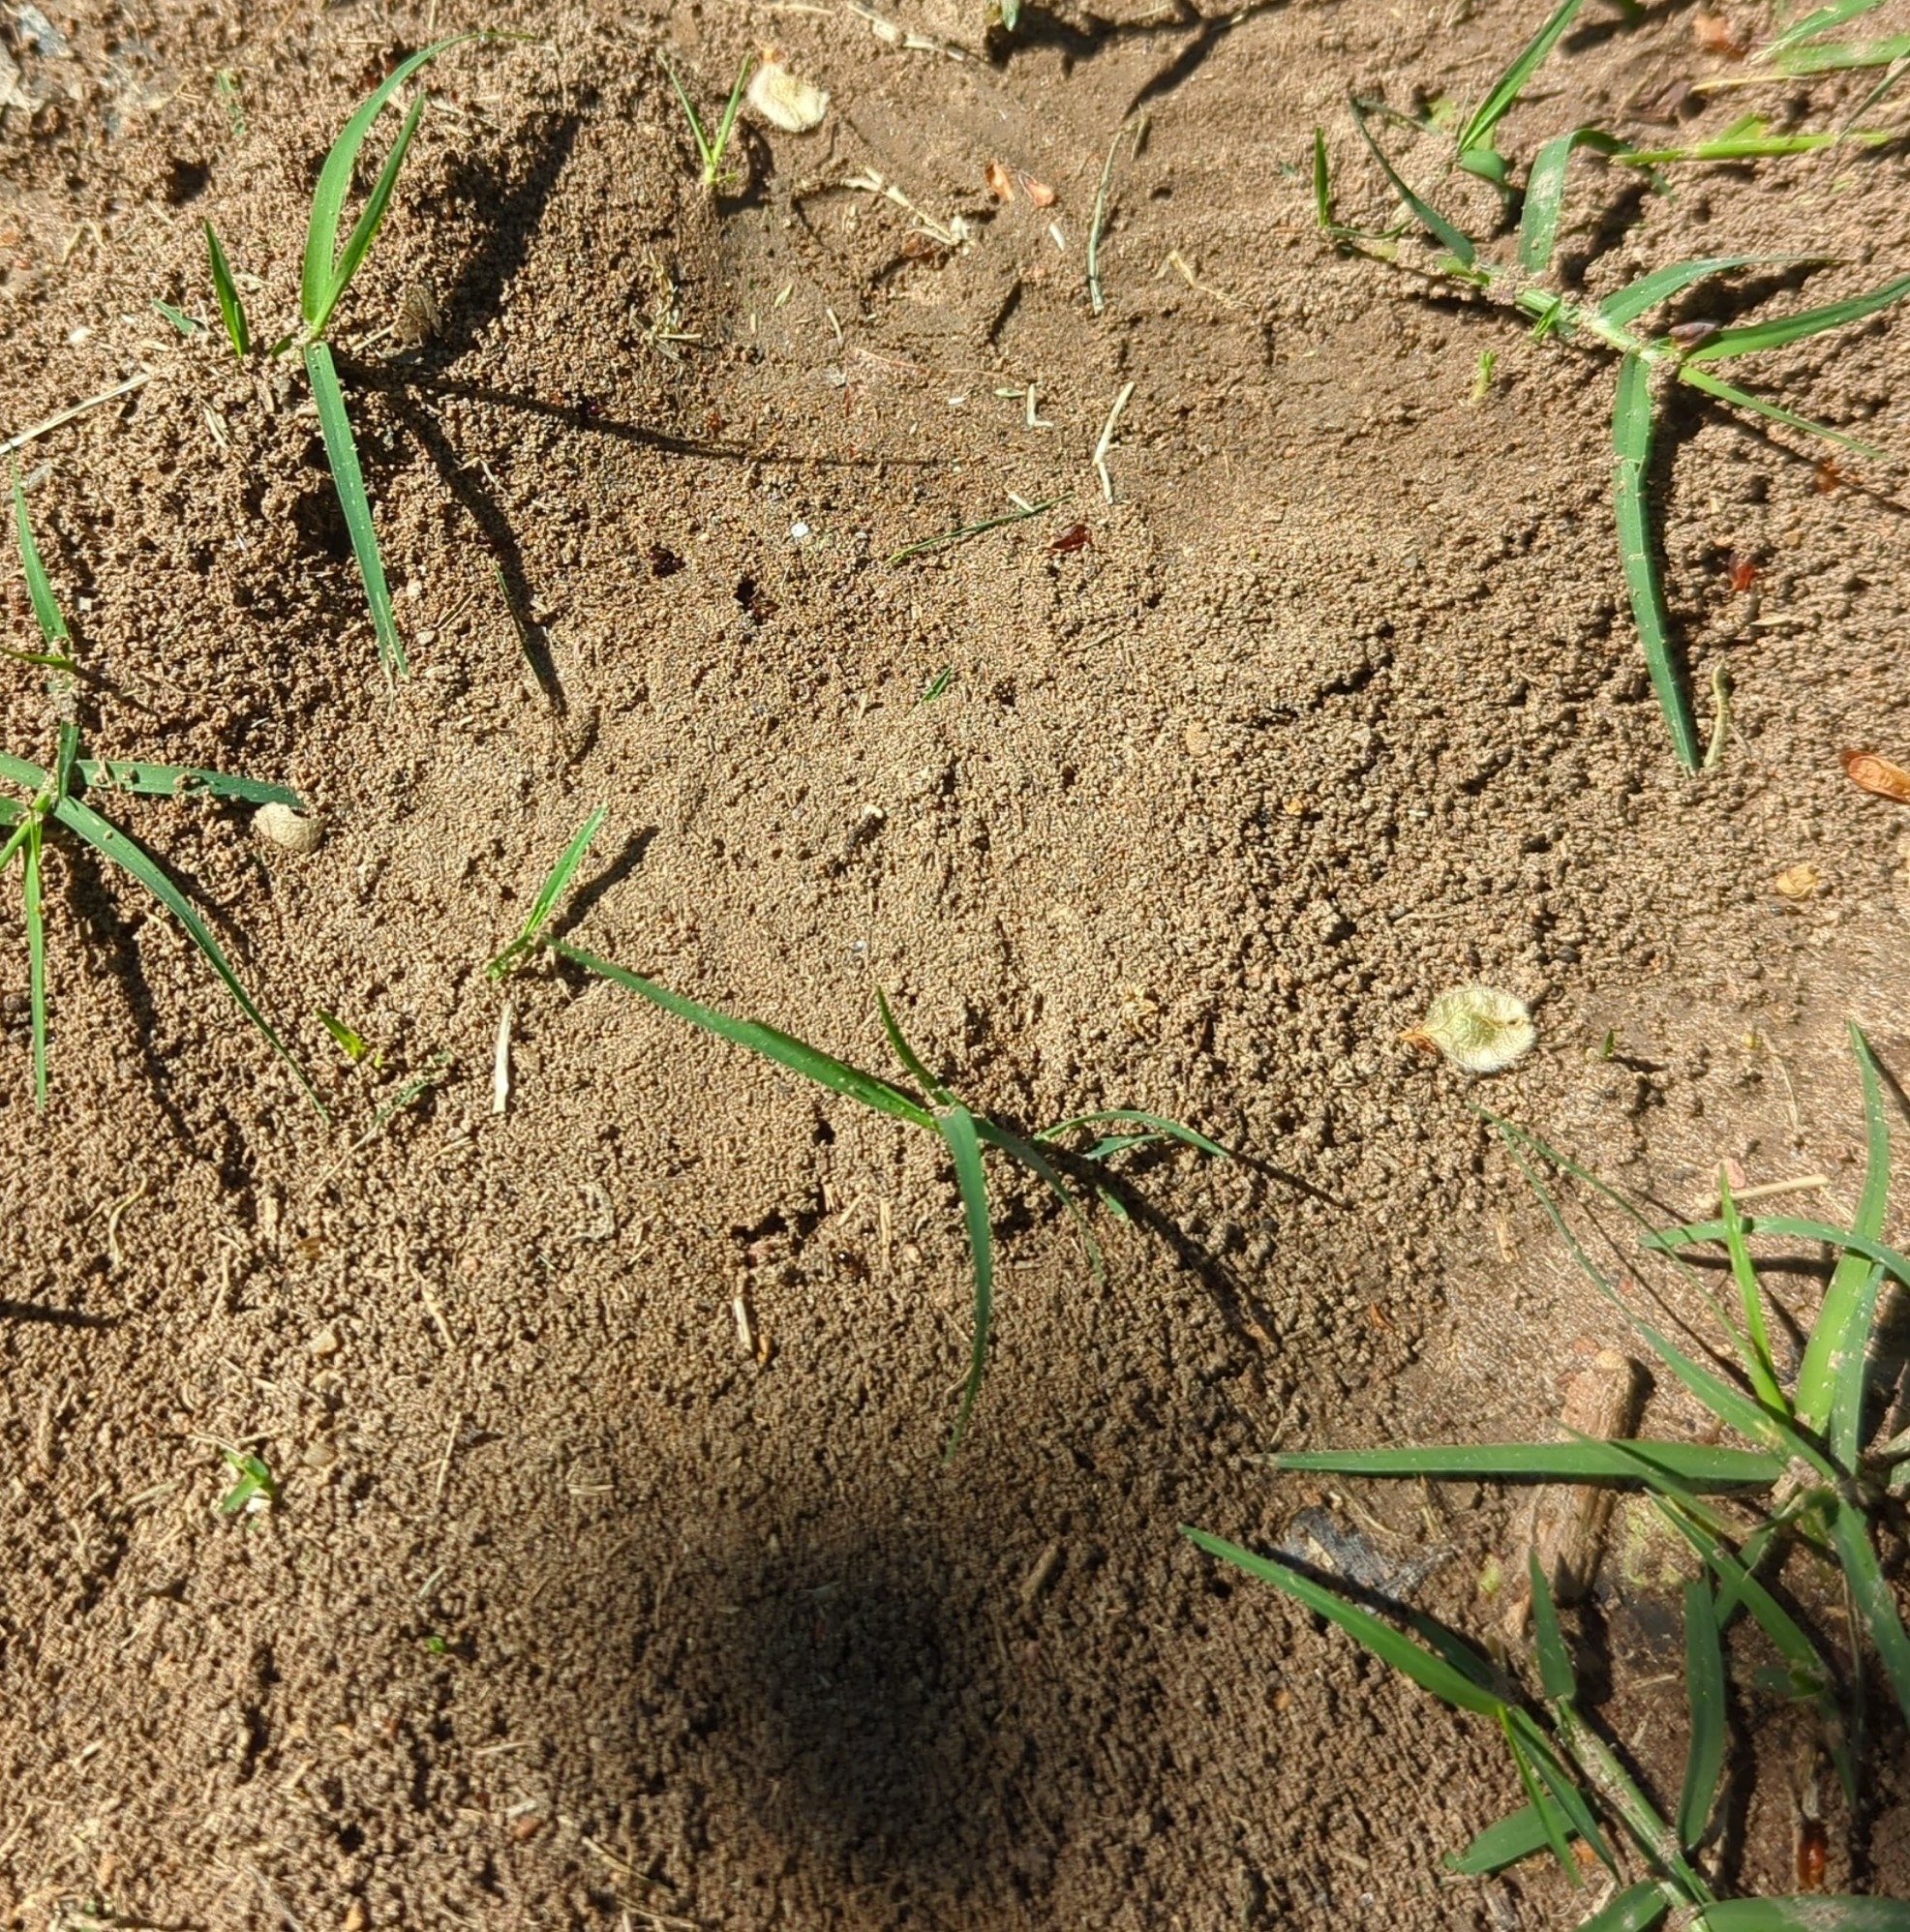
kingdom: Animalia
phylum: Arthropoda
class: Insecta
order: Hymenoptera
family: Formicidae
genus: Solenopsis
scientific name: Solenopsis invicta
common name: Red imported fire ant
